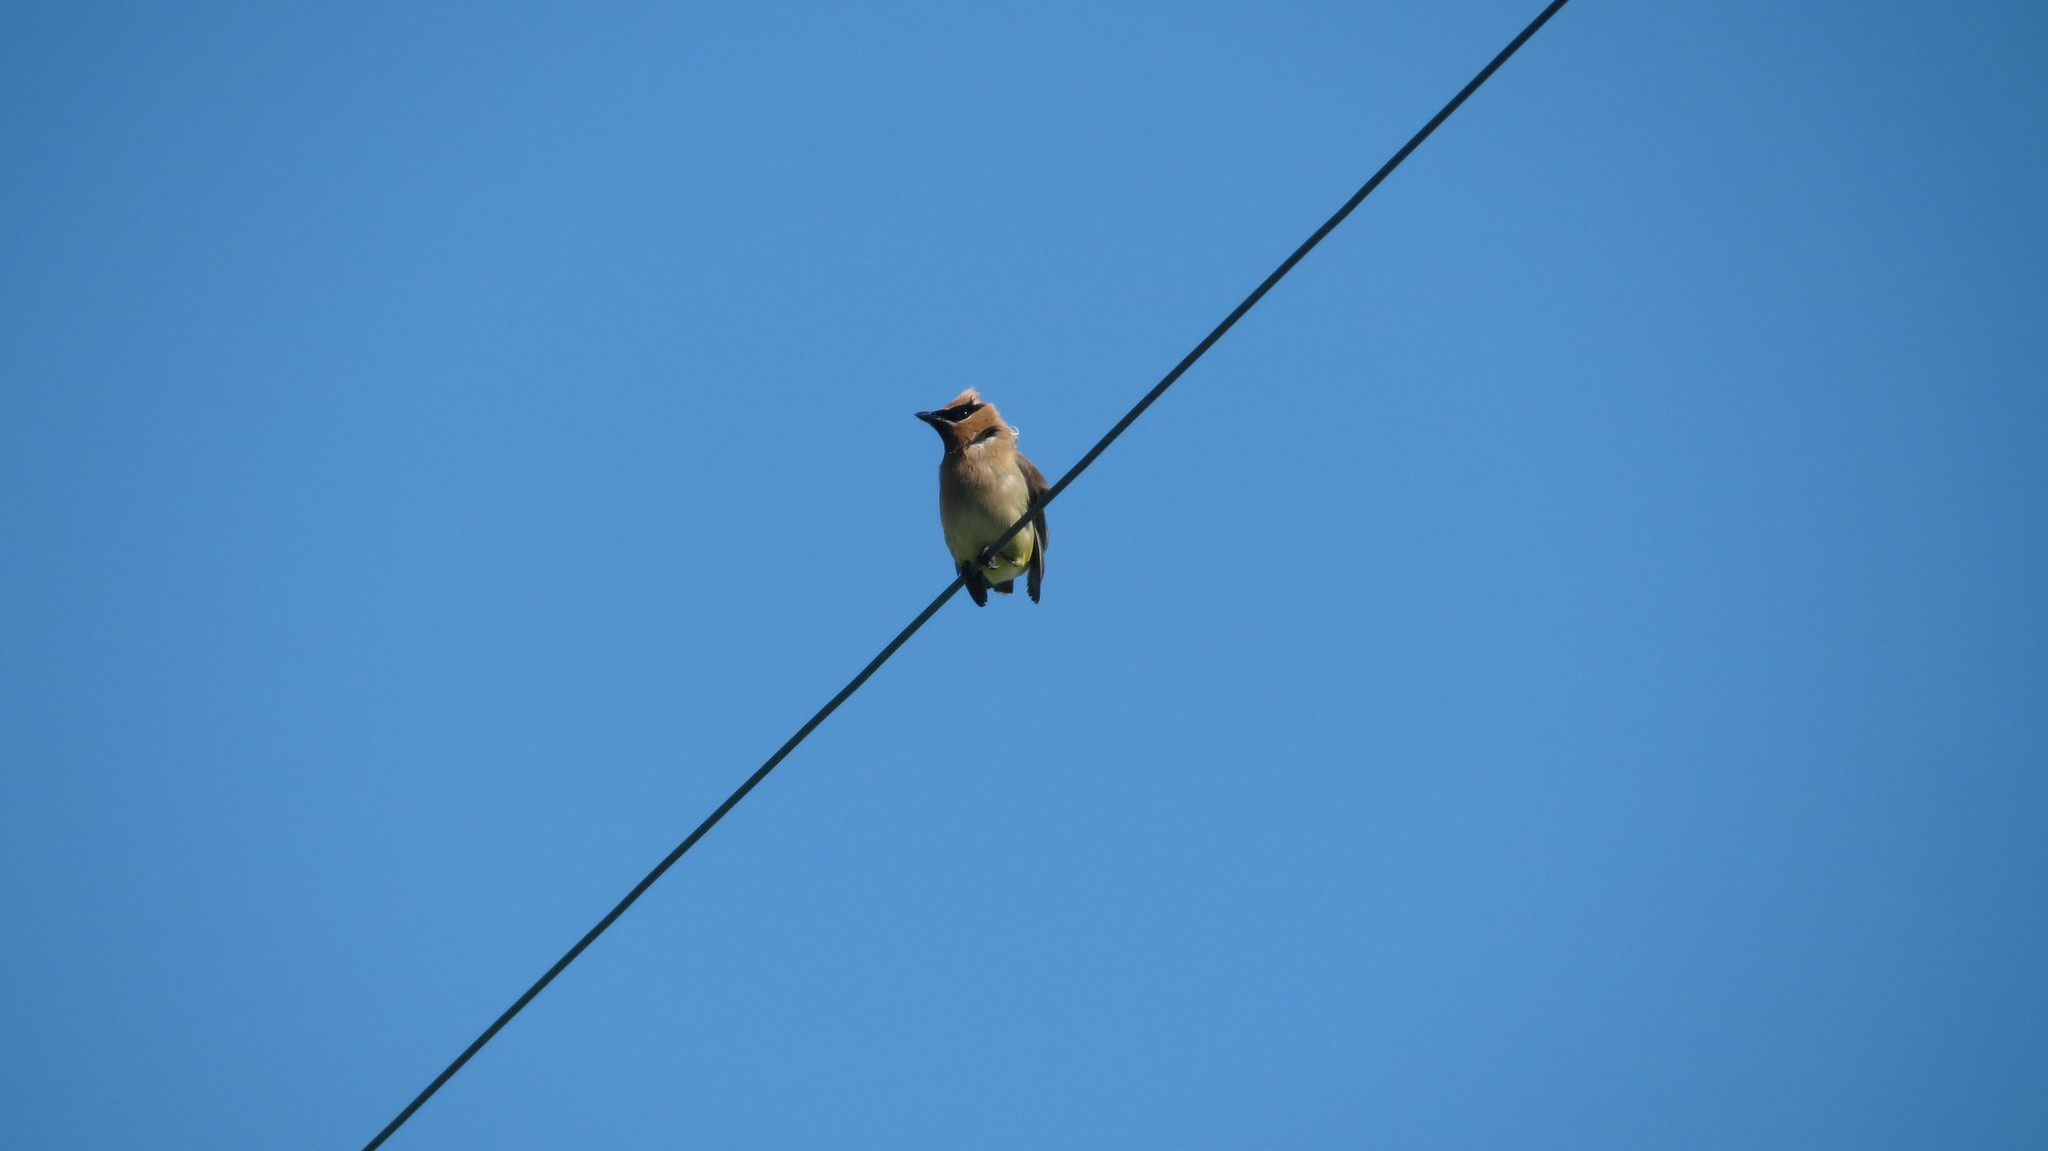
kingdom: Animalia
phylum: Chordata
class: Aves
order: Passeriformes
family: Bombycillidae
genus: Bombycilla
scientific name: Bombycilla cedrorum
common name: Cedar waxwing
